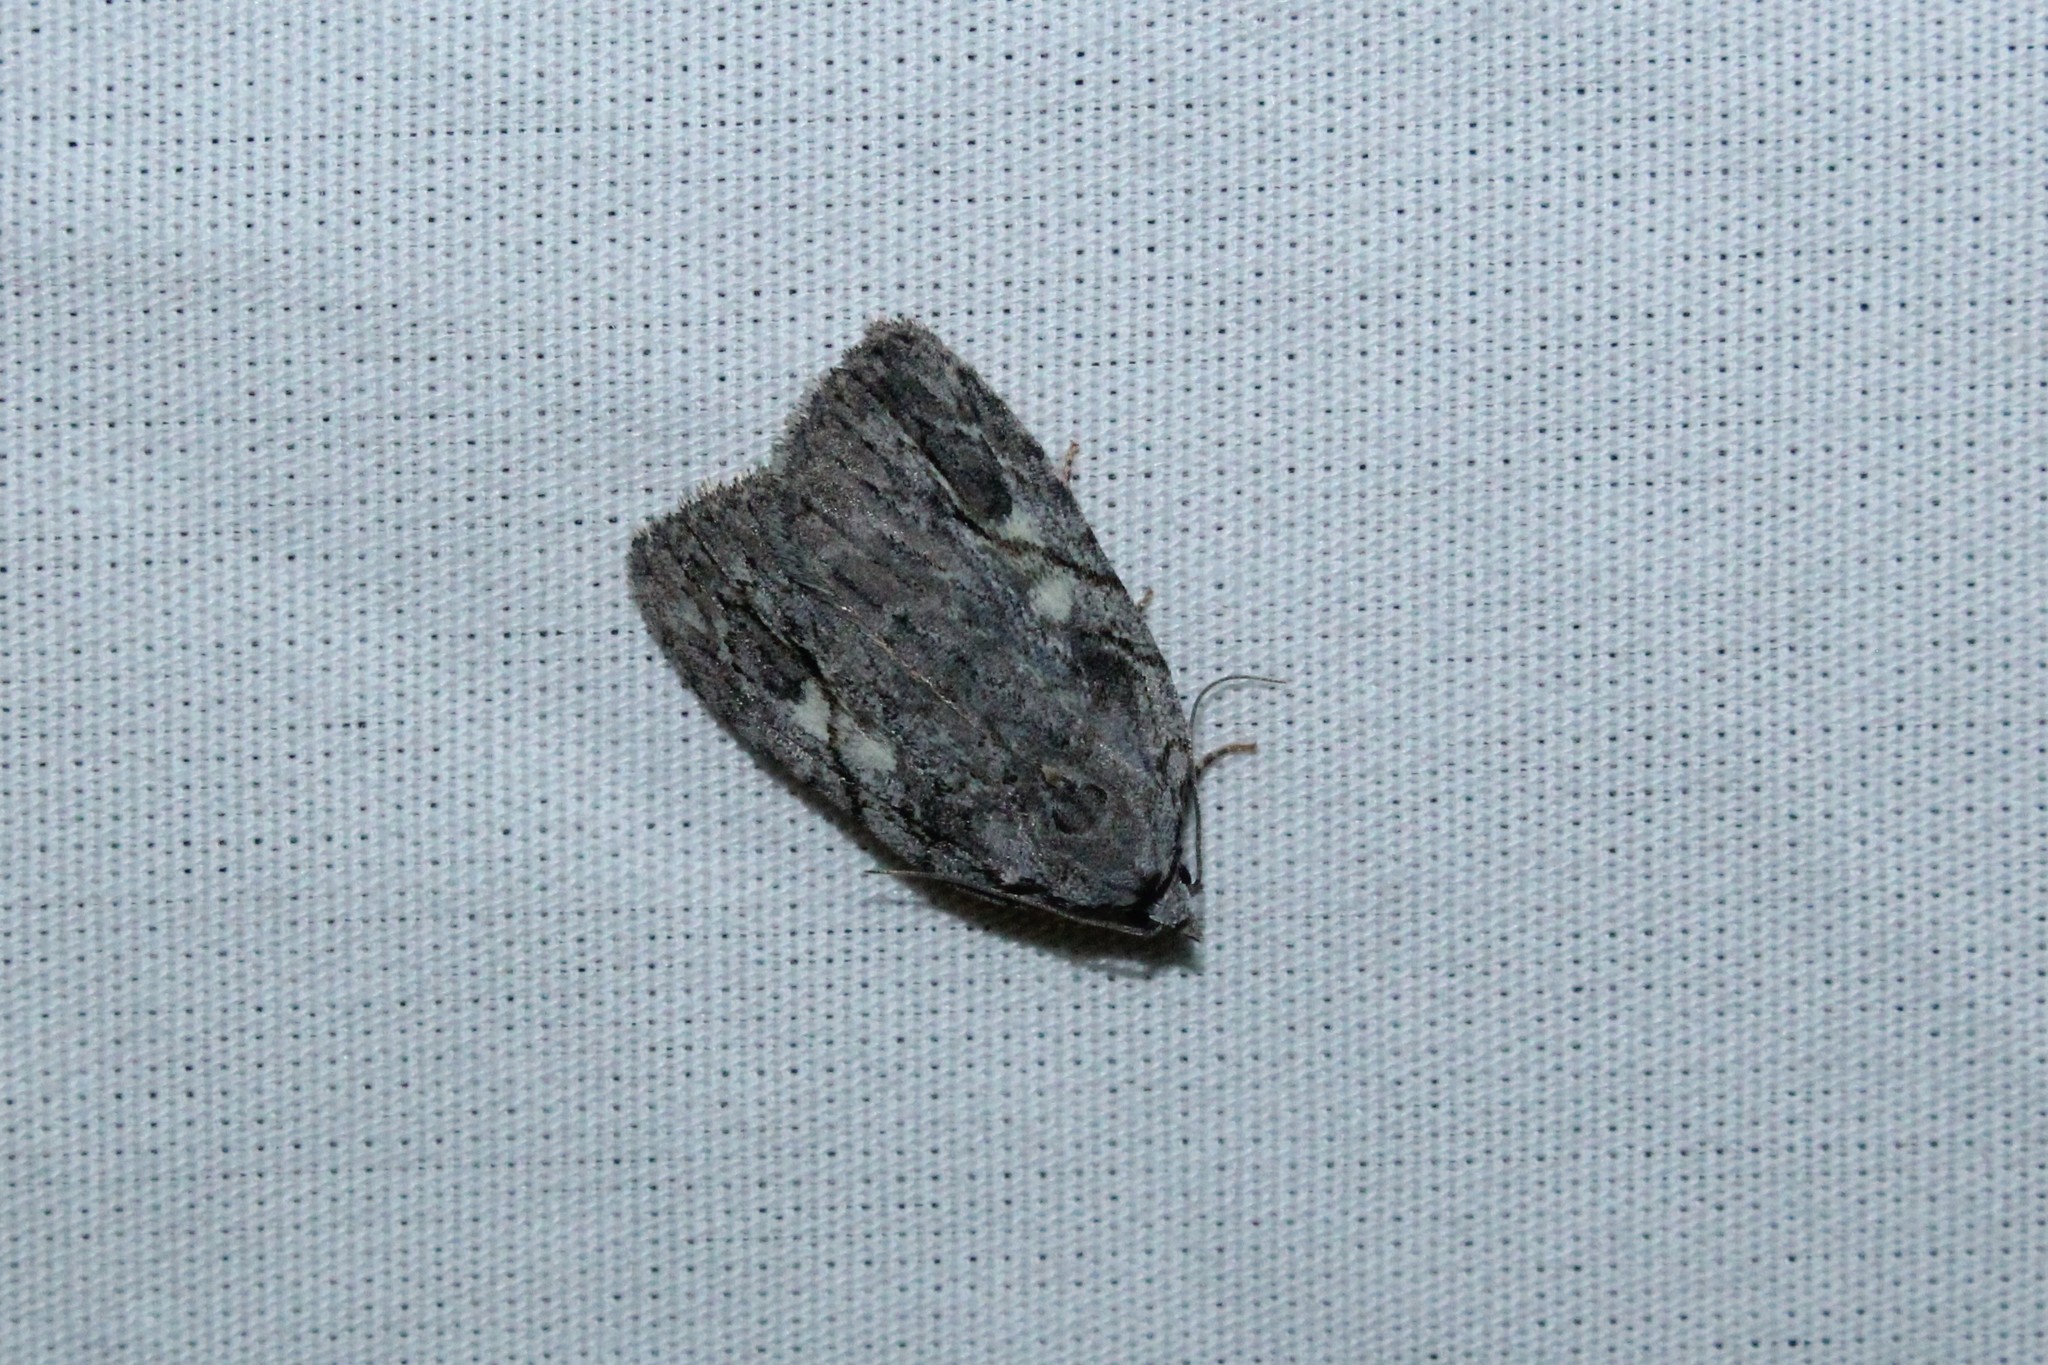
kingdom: Animalia
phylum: Arthropoda
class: Insecta
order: Lepidoptera
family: Noctuidae
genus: Balsa
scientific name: Balsa labecula
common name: White-blotched balsa moth
